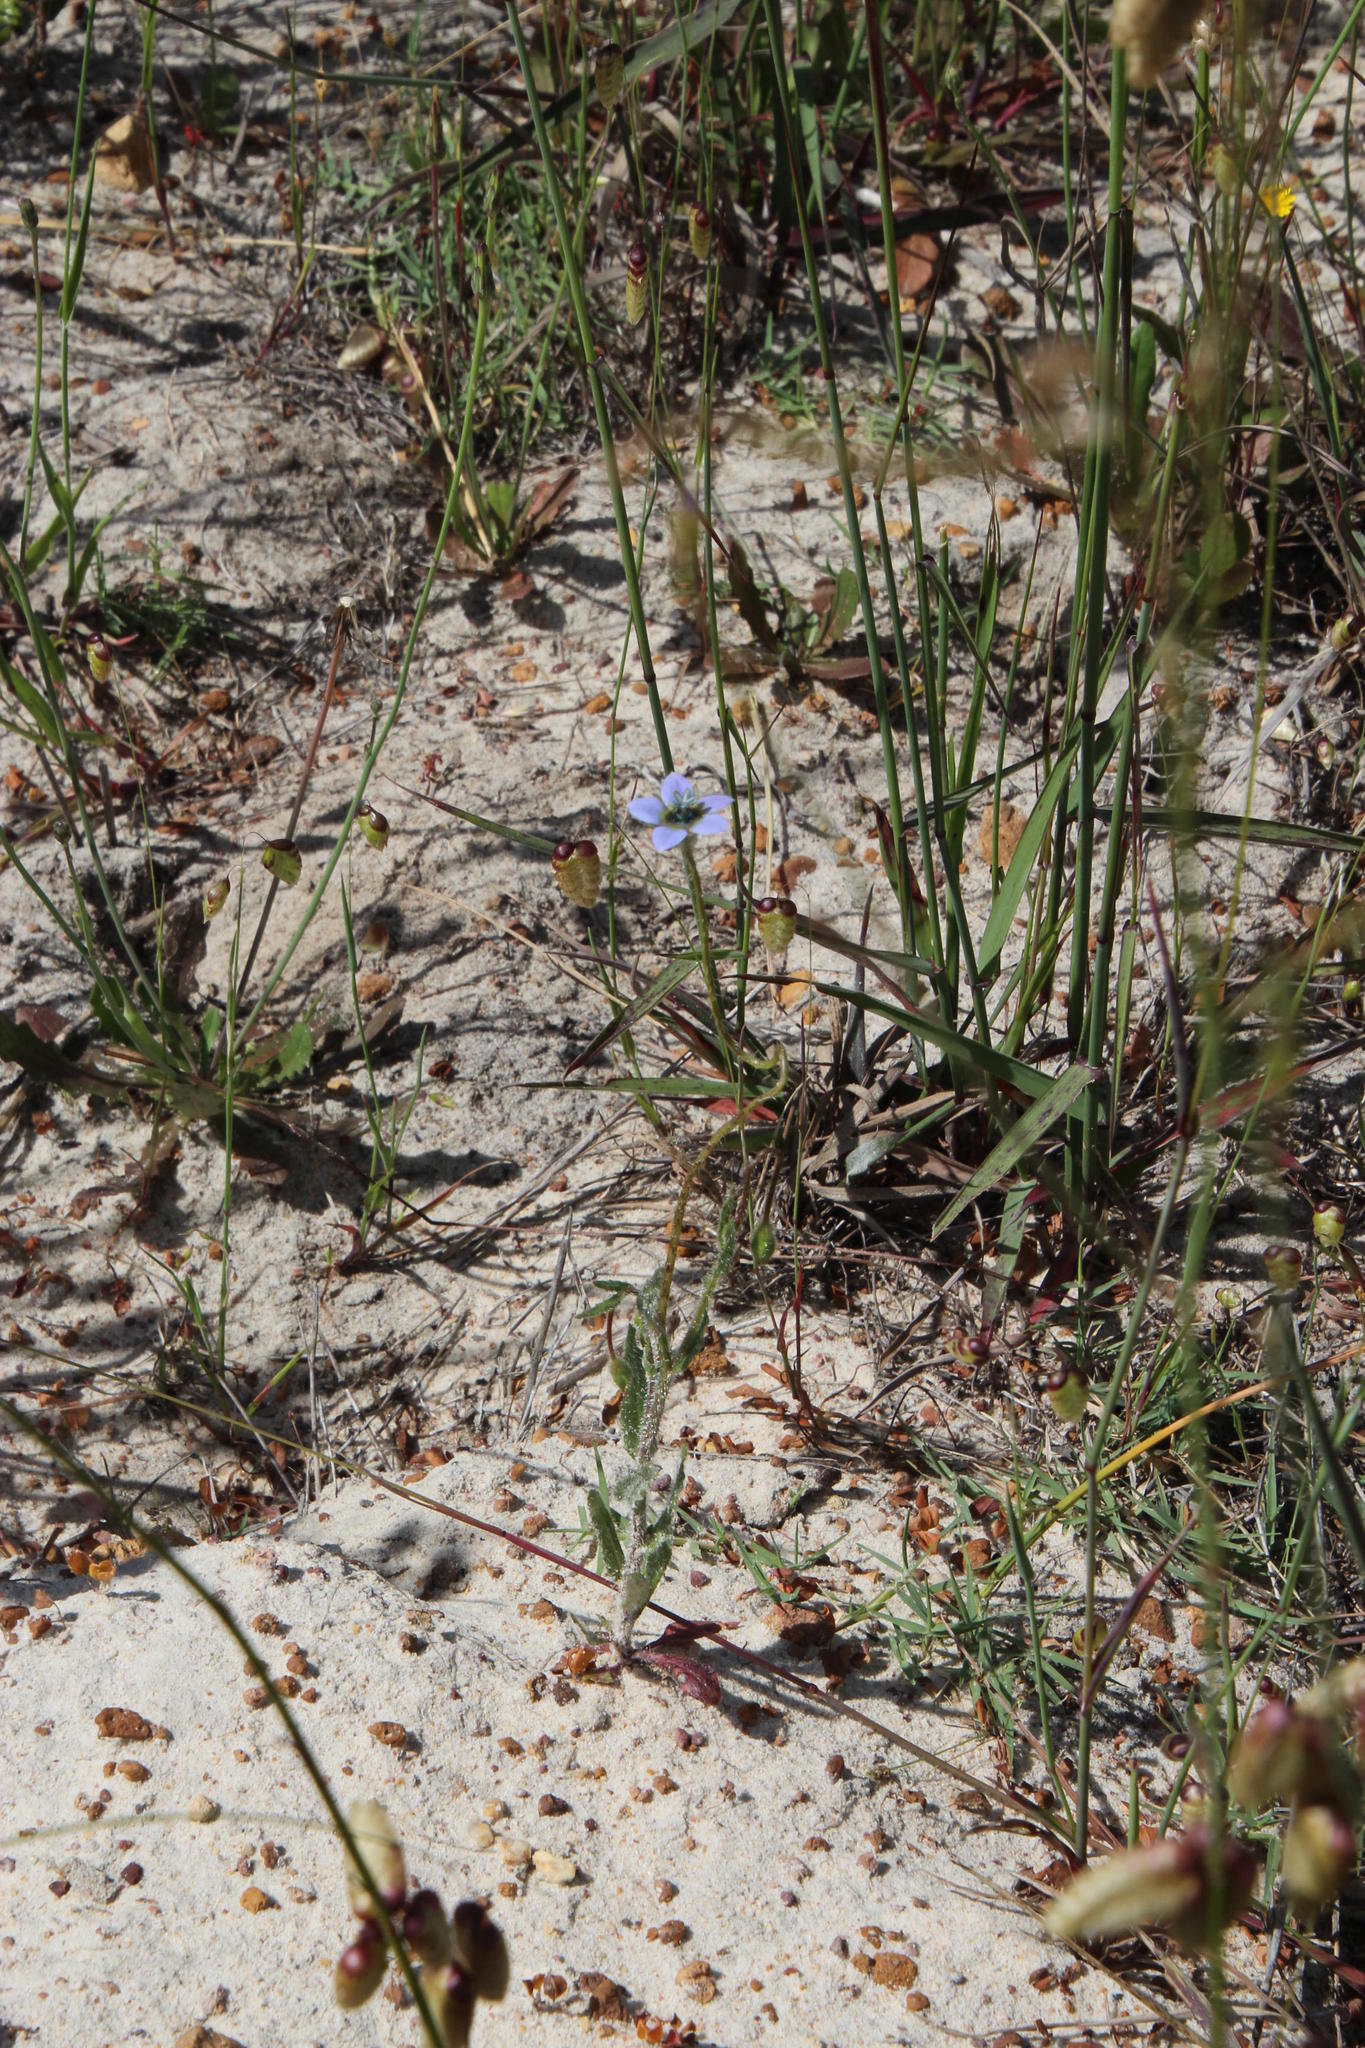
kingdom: Plantae
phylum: Tracheophyta
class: Magnoliopsida
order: Asterales
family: Campanulaceae
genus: Wahlenbergia
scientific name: Wahlenbergia capensis
